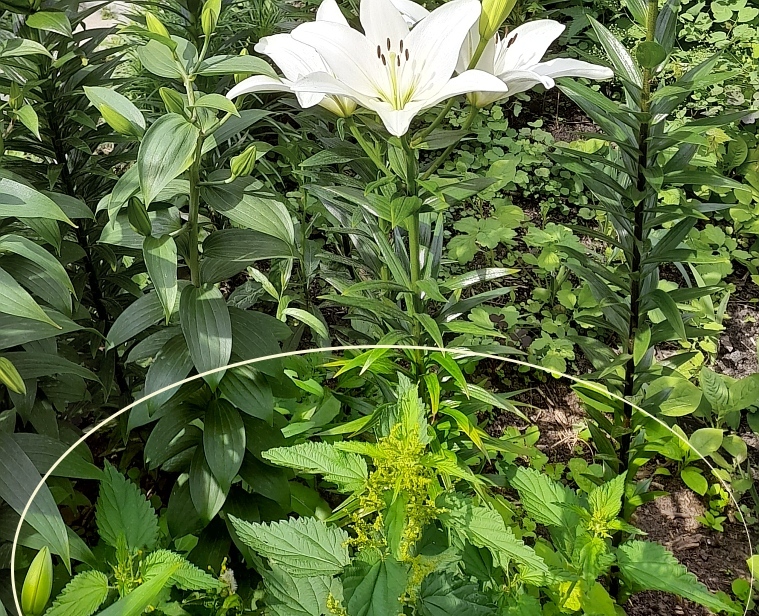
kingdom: Plantae
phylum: Tracheophyta
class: Magnoliopsida
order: Rosales
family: Urticaceae
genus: Urtica
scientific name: Urtica dioica
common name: Common nettle
